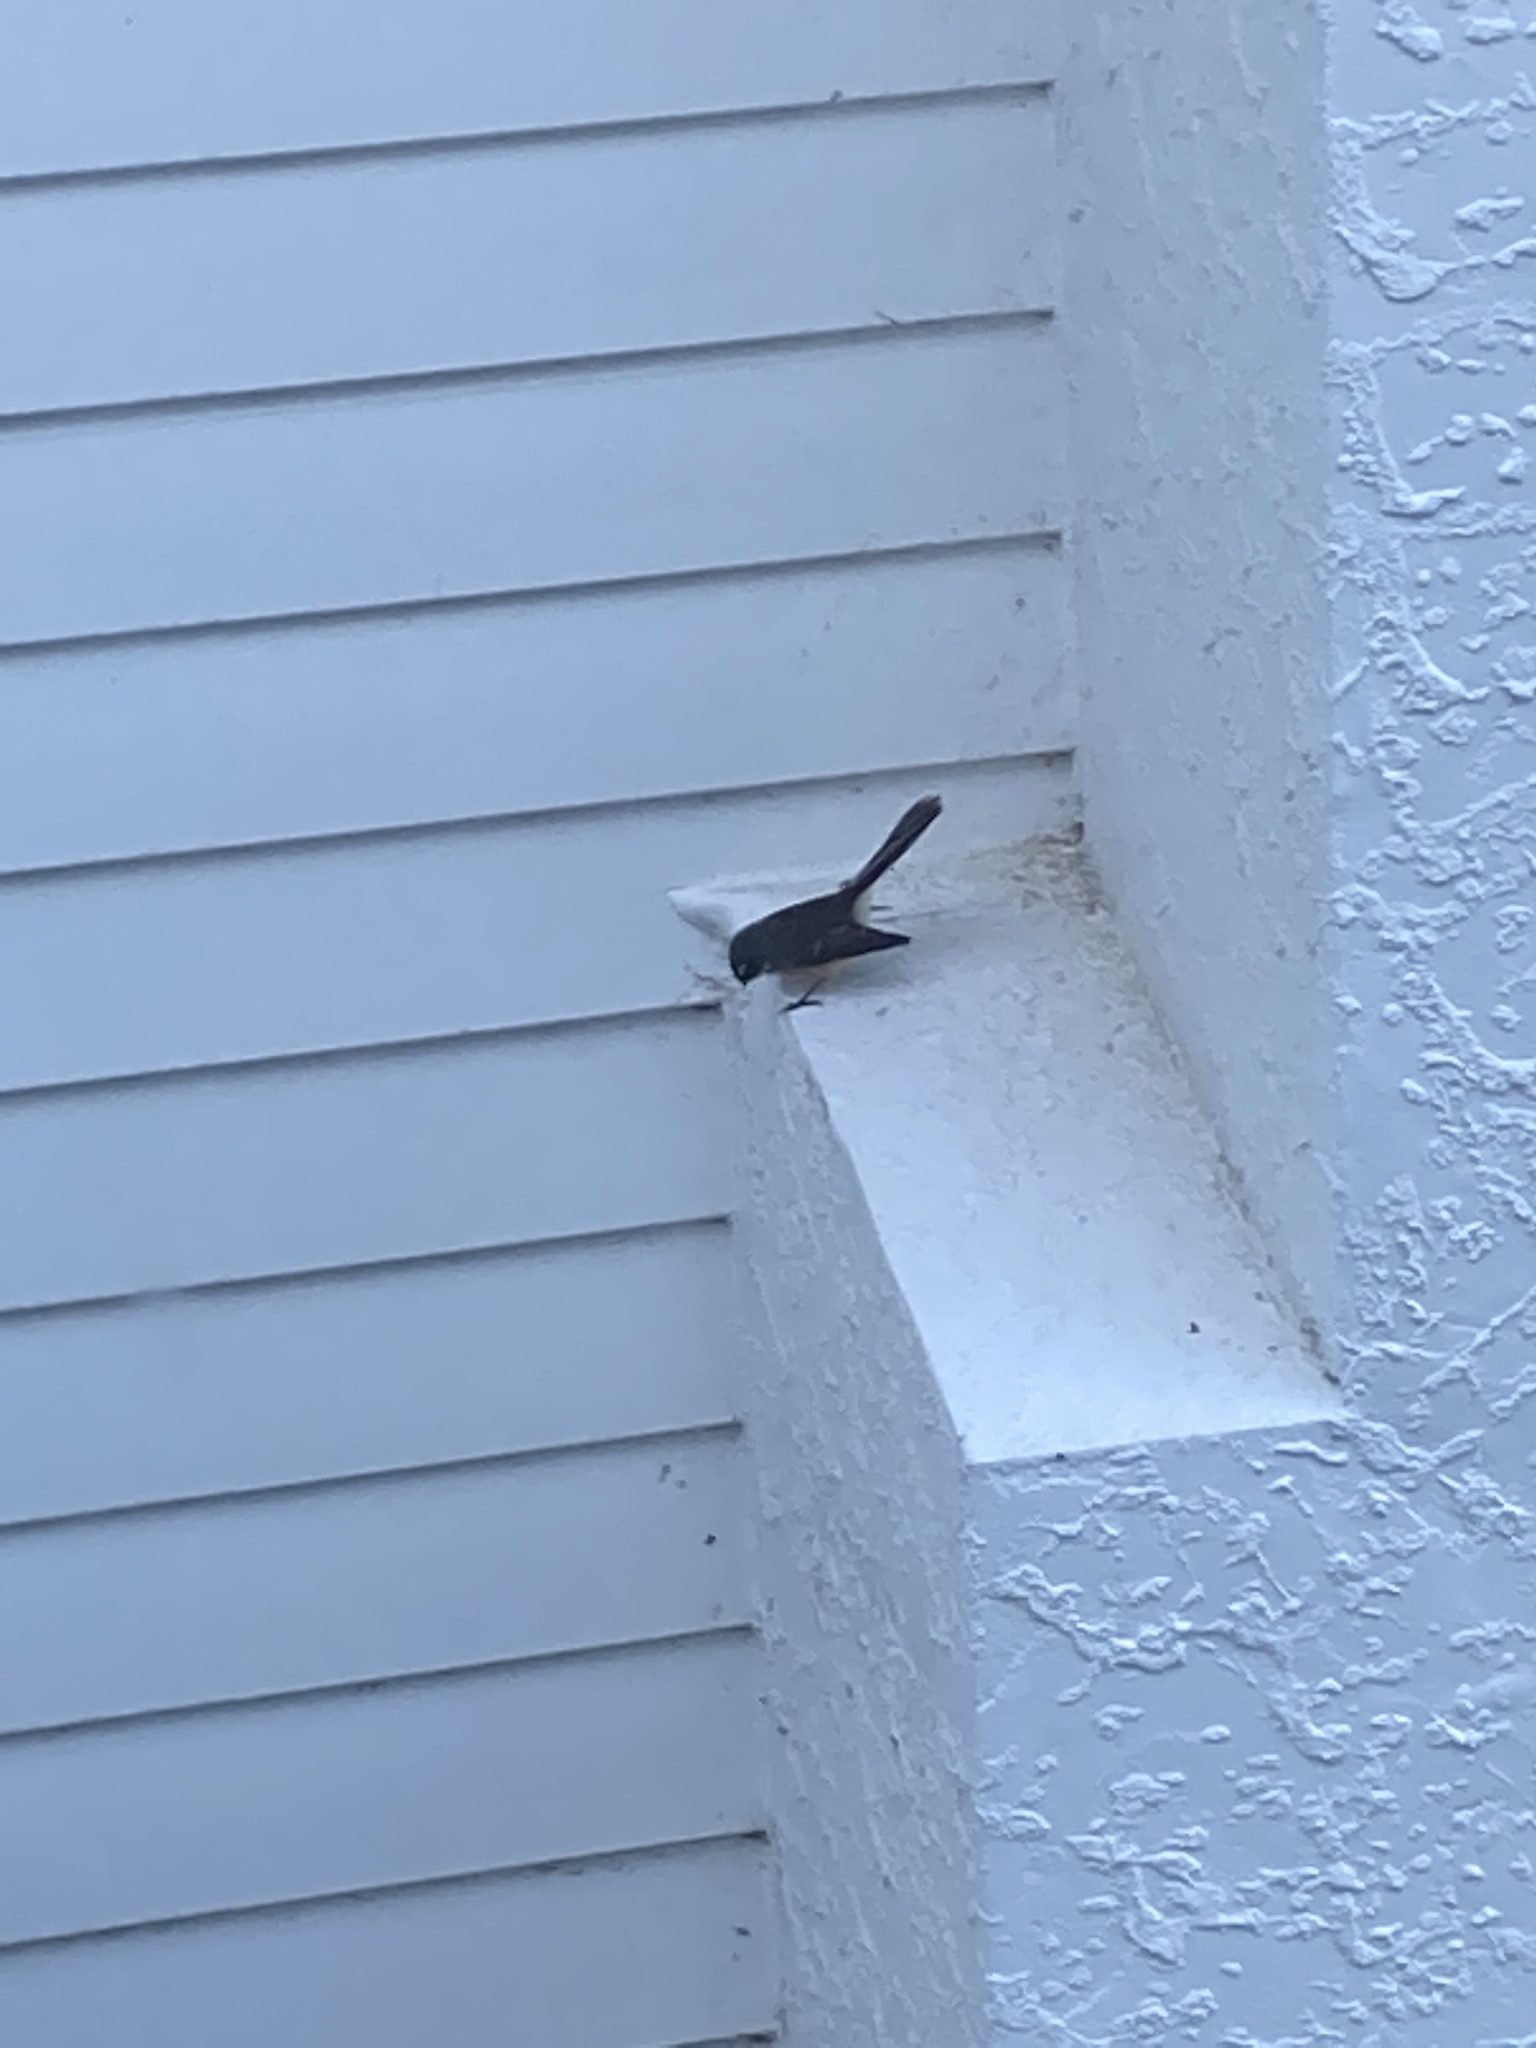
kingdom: Animalia
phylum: Chordata
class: Aves
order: Passeriformes
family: Rhipiduridae
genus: Rhipidura
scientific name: Rhipidura fuliginosa
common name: New zealand fantail
